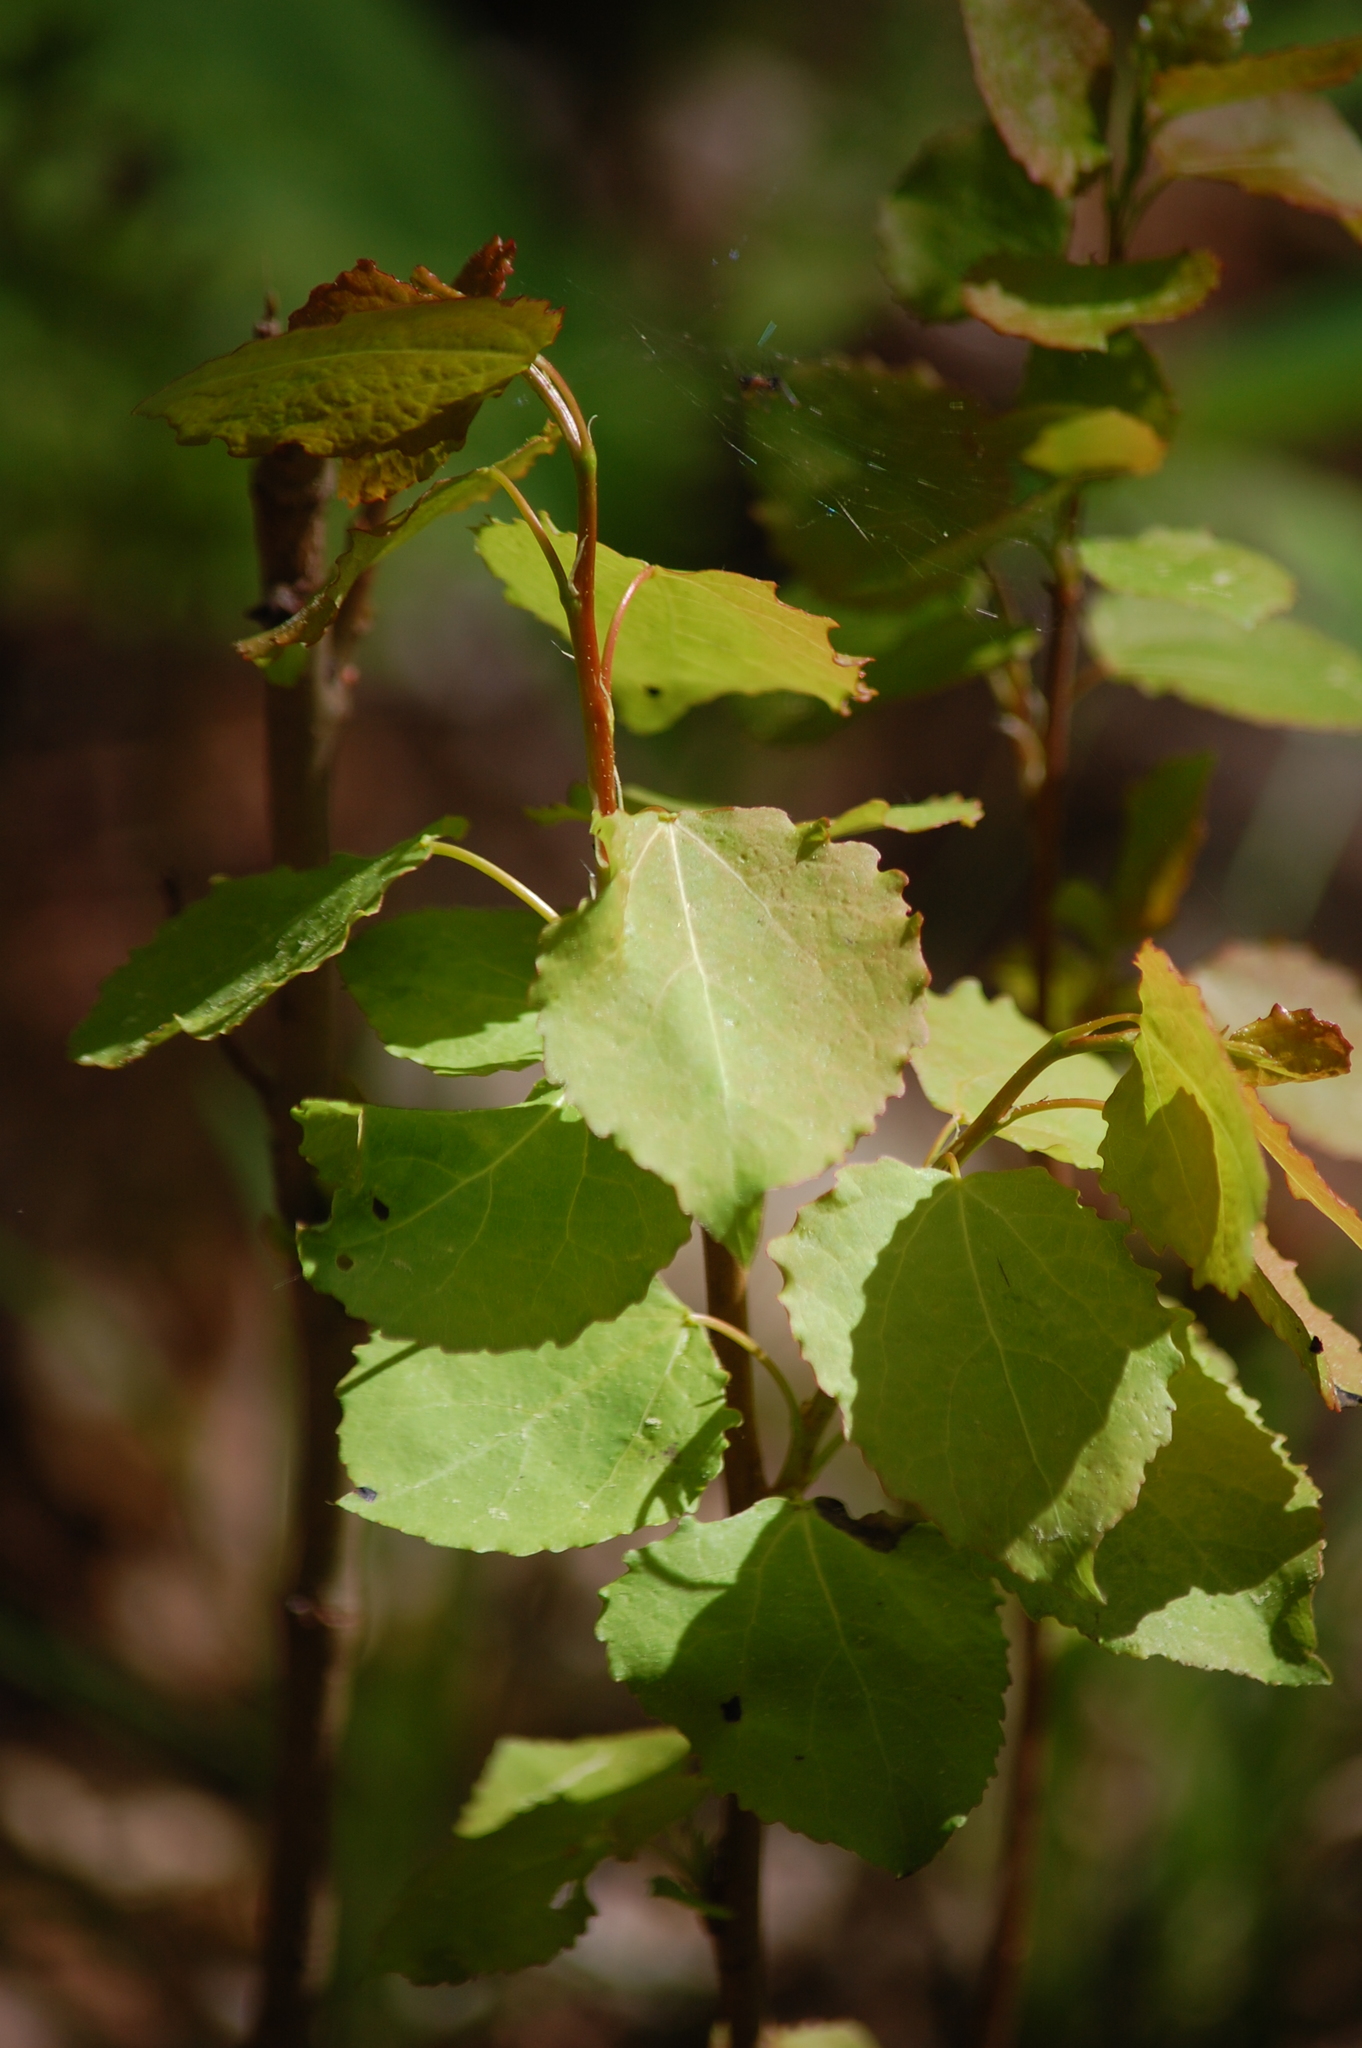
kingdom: Plantae
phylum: Tracheophyta
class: Magnoliopsida
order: Malpighiales
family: Salicaceae
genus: Populus
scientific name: Populus tremula
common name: European aspen
